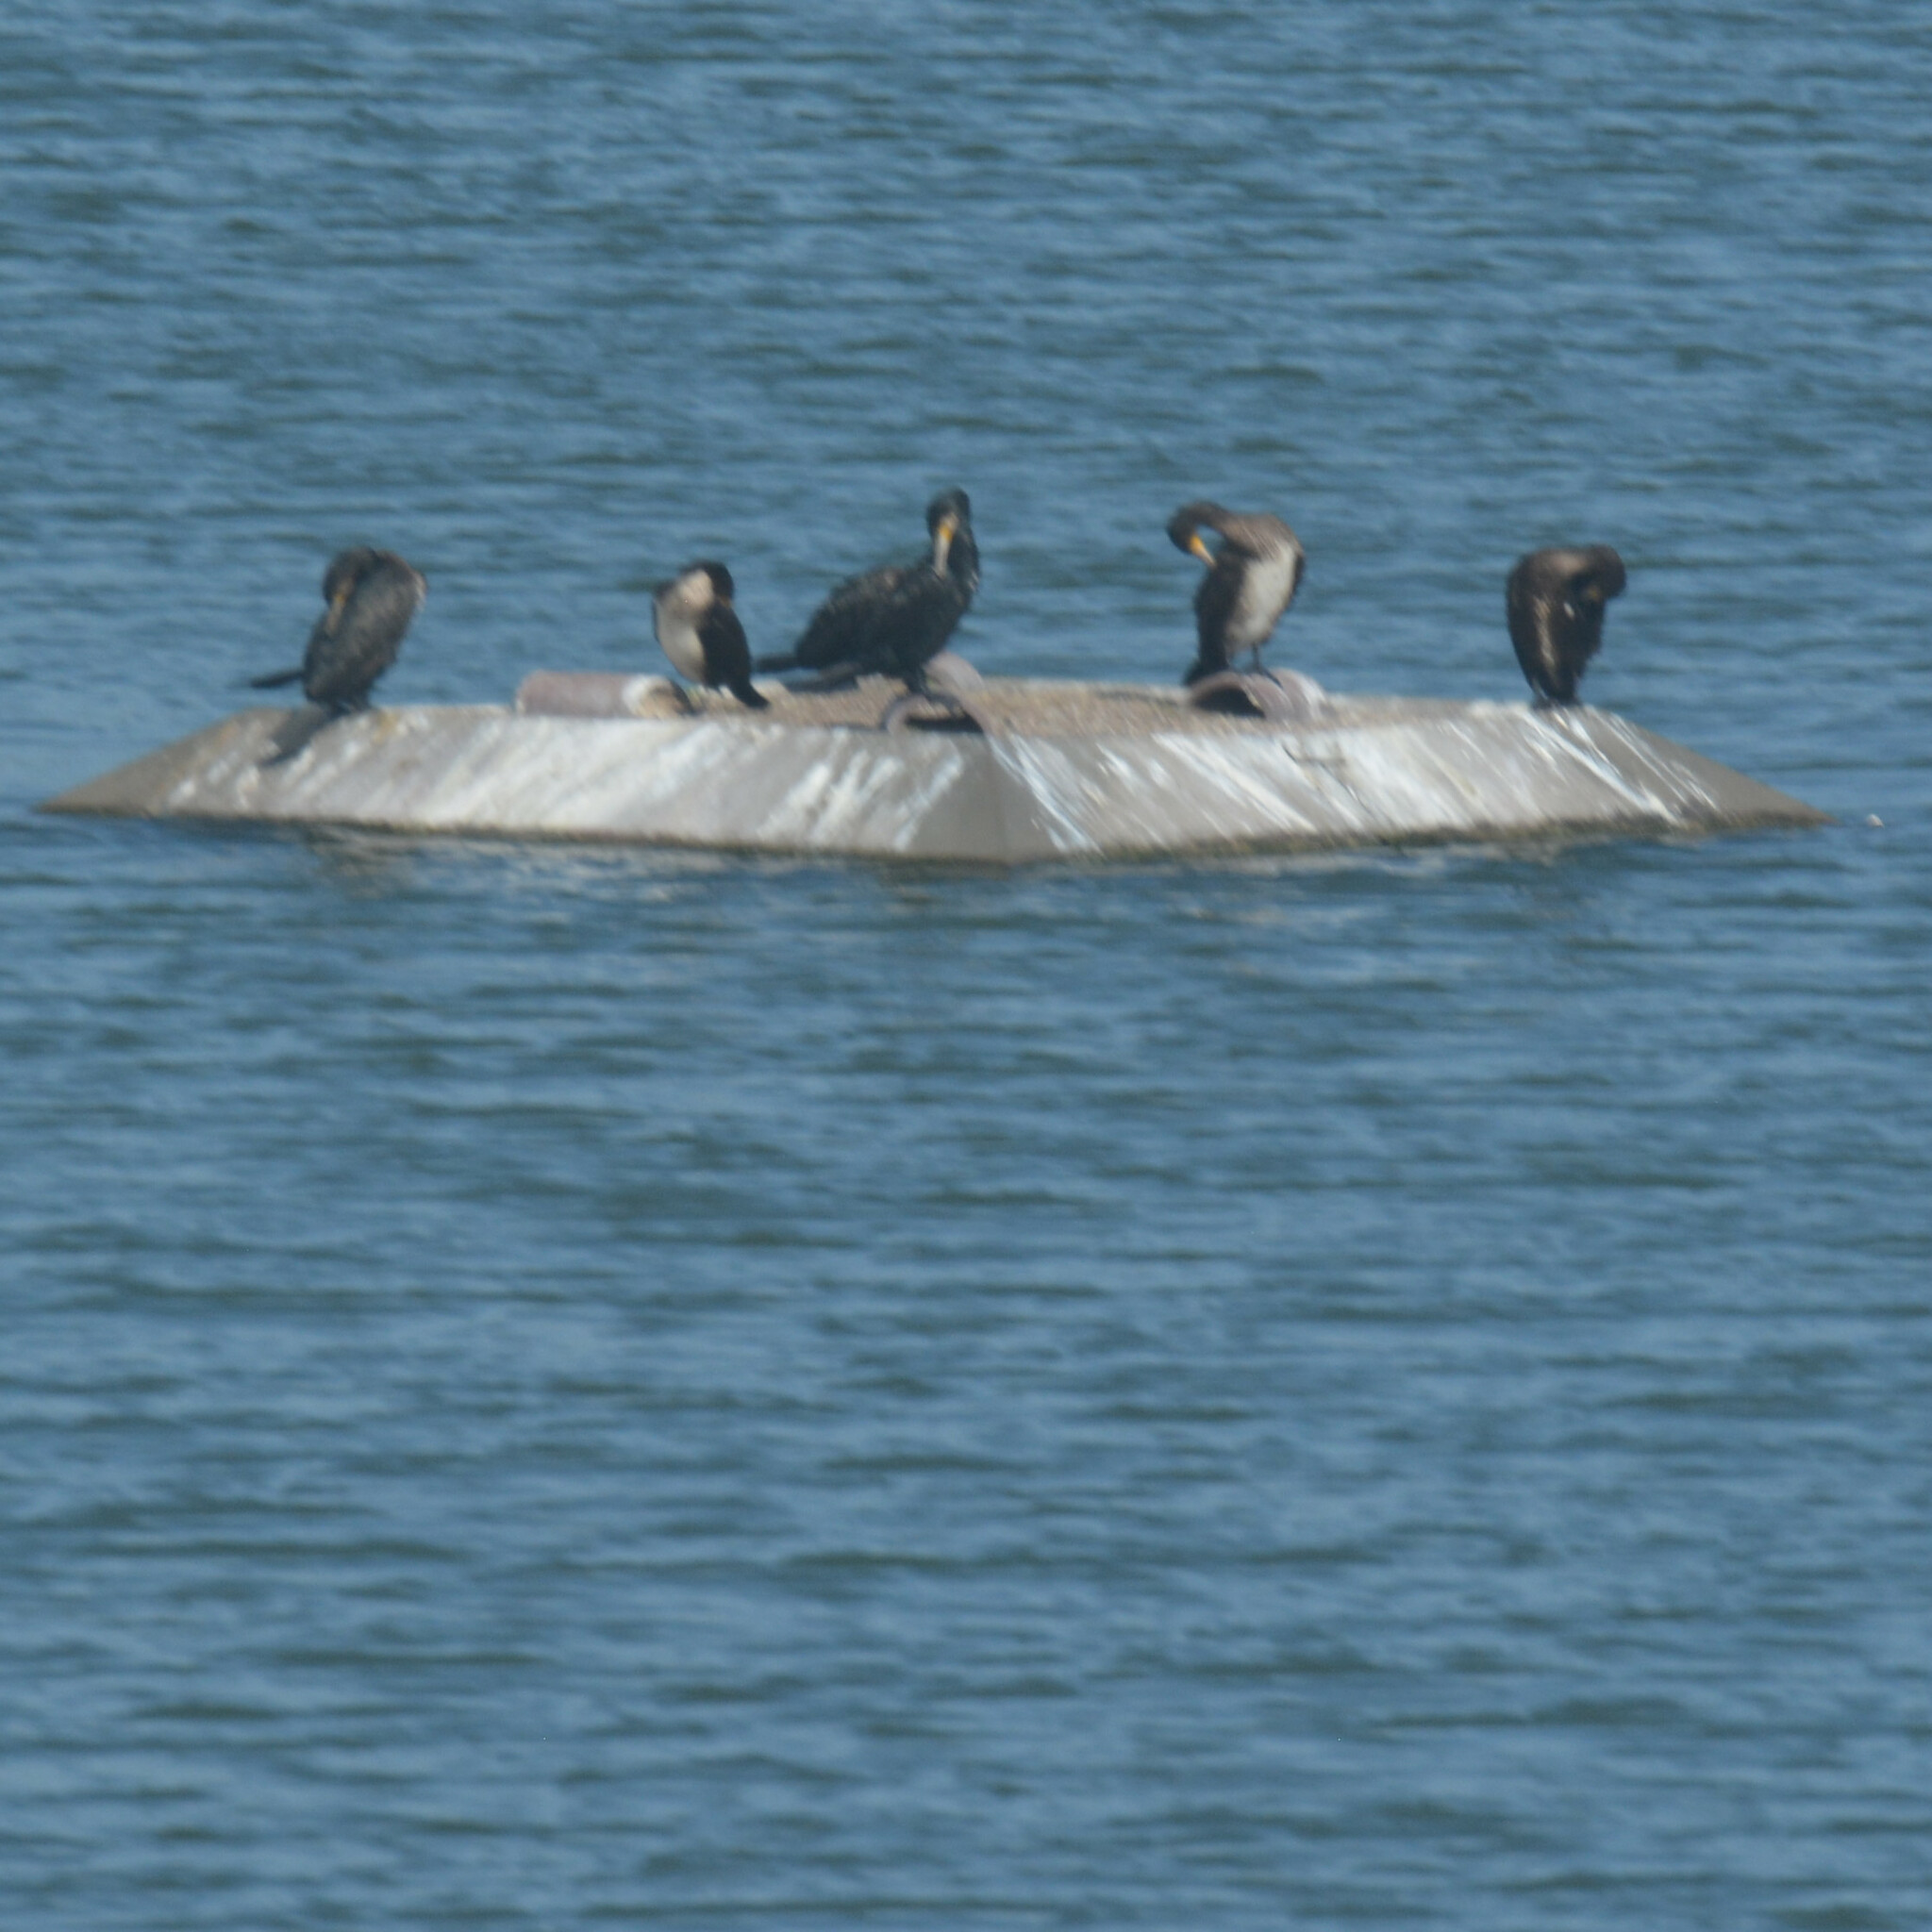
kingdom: Animalia
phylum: Chordata
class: Aves
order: Suliformes
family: Phalacrocoracidae
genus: Phalacrocorax
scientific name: Phalacrocorax carbo
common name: Great cormorant
